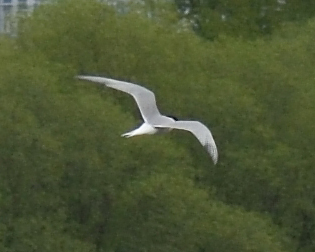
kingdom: Animalia
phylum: Chordata
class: Aves
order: Charadriiformes
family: Laridae
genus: Sterna
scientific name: Sterna hirundo
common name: Common tern
